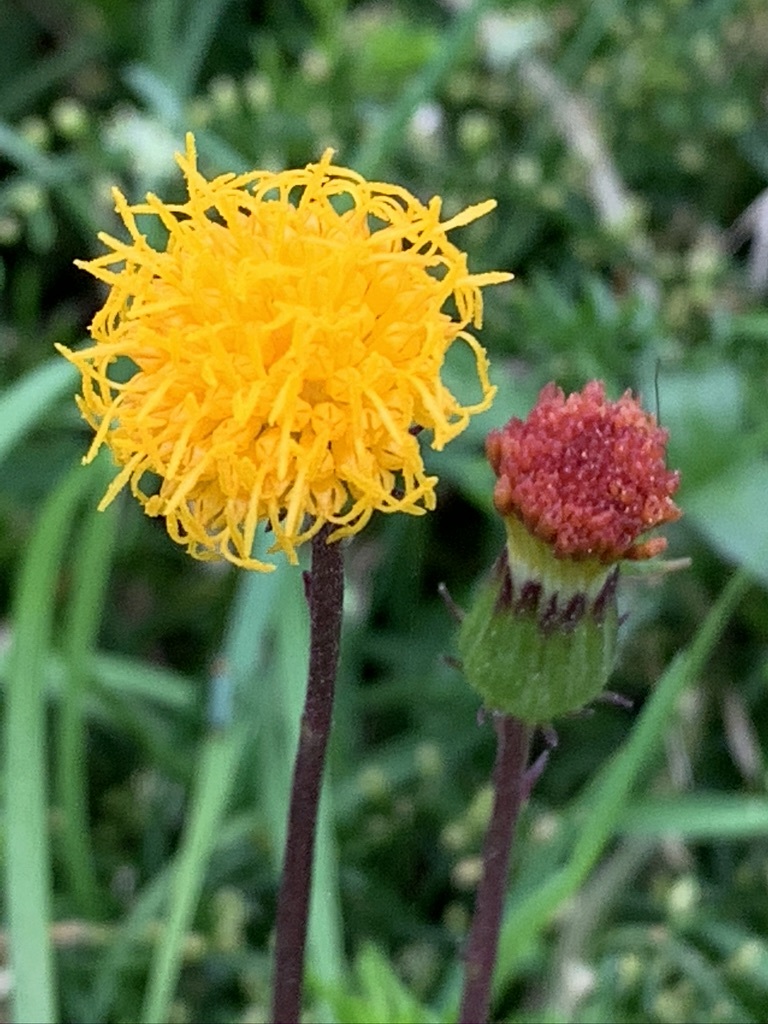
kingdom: Plantae
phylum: Tracheophyta
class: Magnoliopsida
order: Asterales
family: Asteraceae
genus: Gynura
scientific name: Gynura formosana
